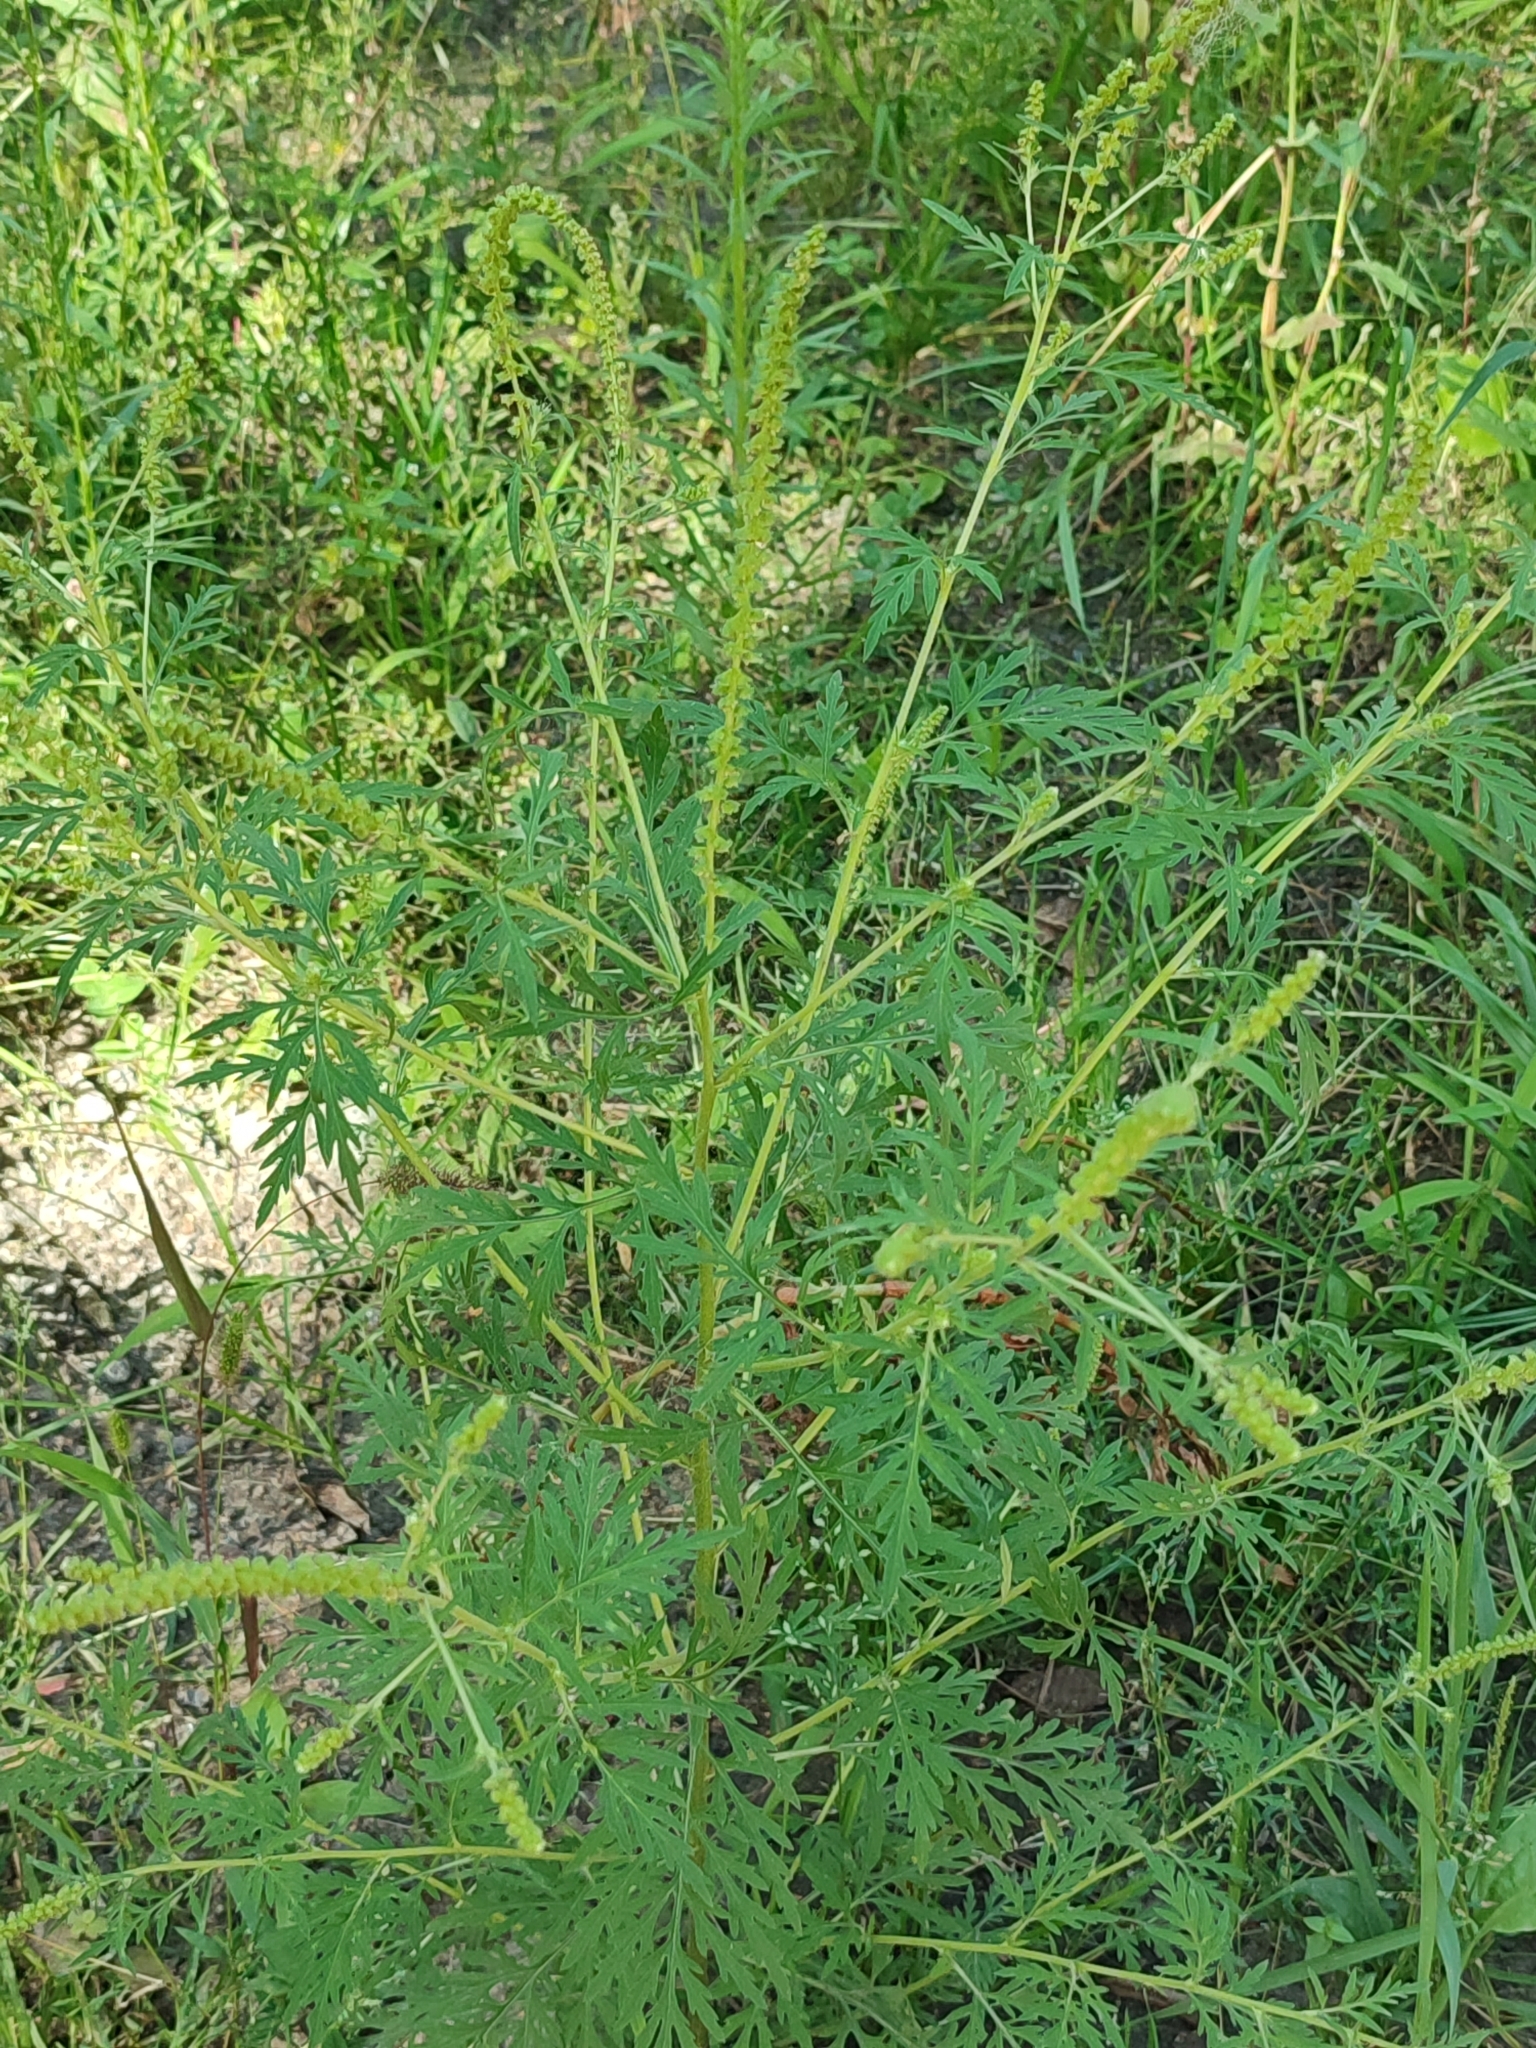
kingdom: Plantae
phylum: Tracheophyta
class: Magnoliopsida
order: Asterales
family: Asteraceae
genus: Ambrosia
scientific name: Ambrosia artemisiifolia
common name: Annual ragweed
